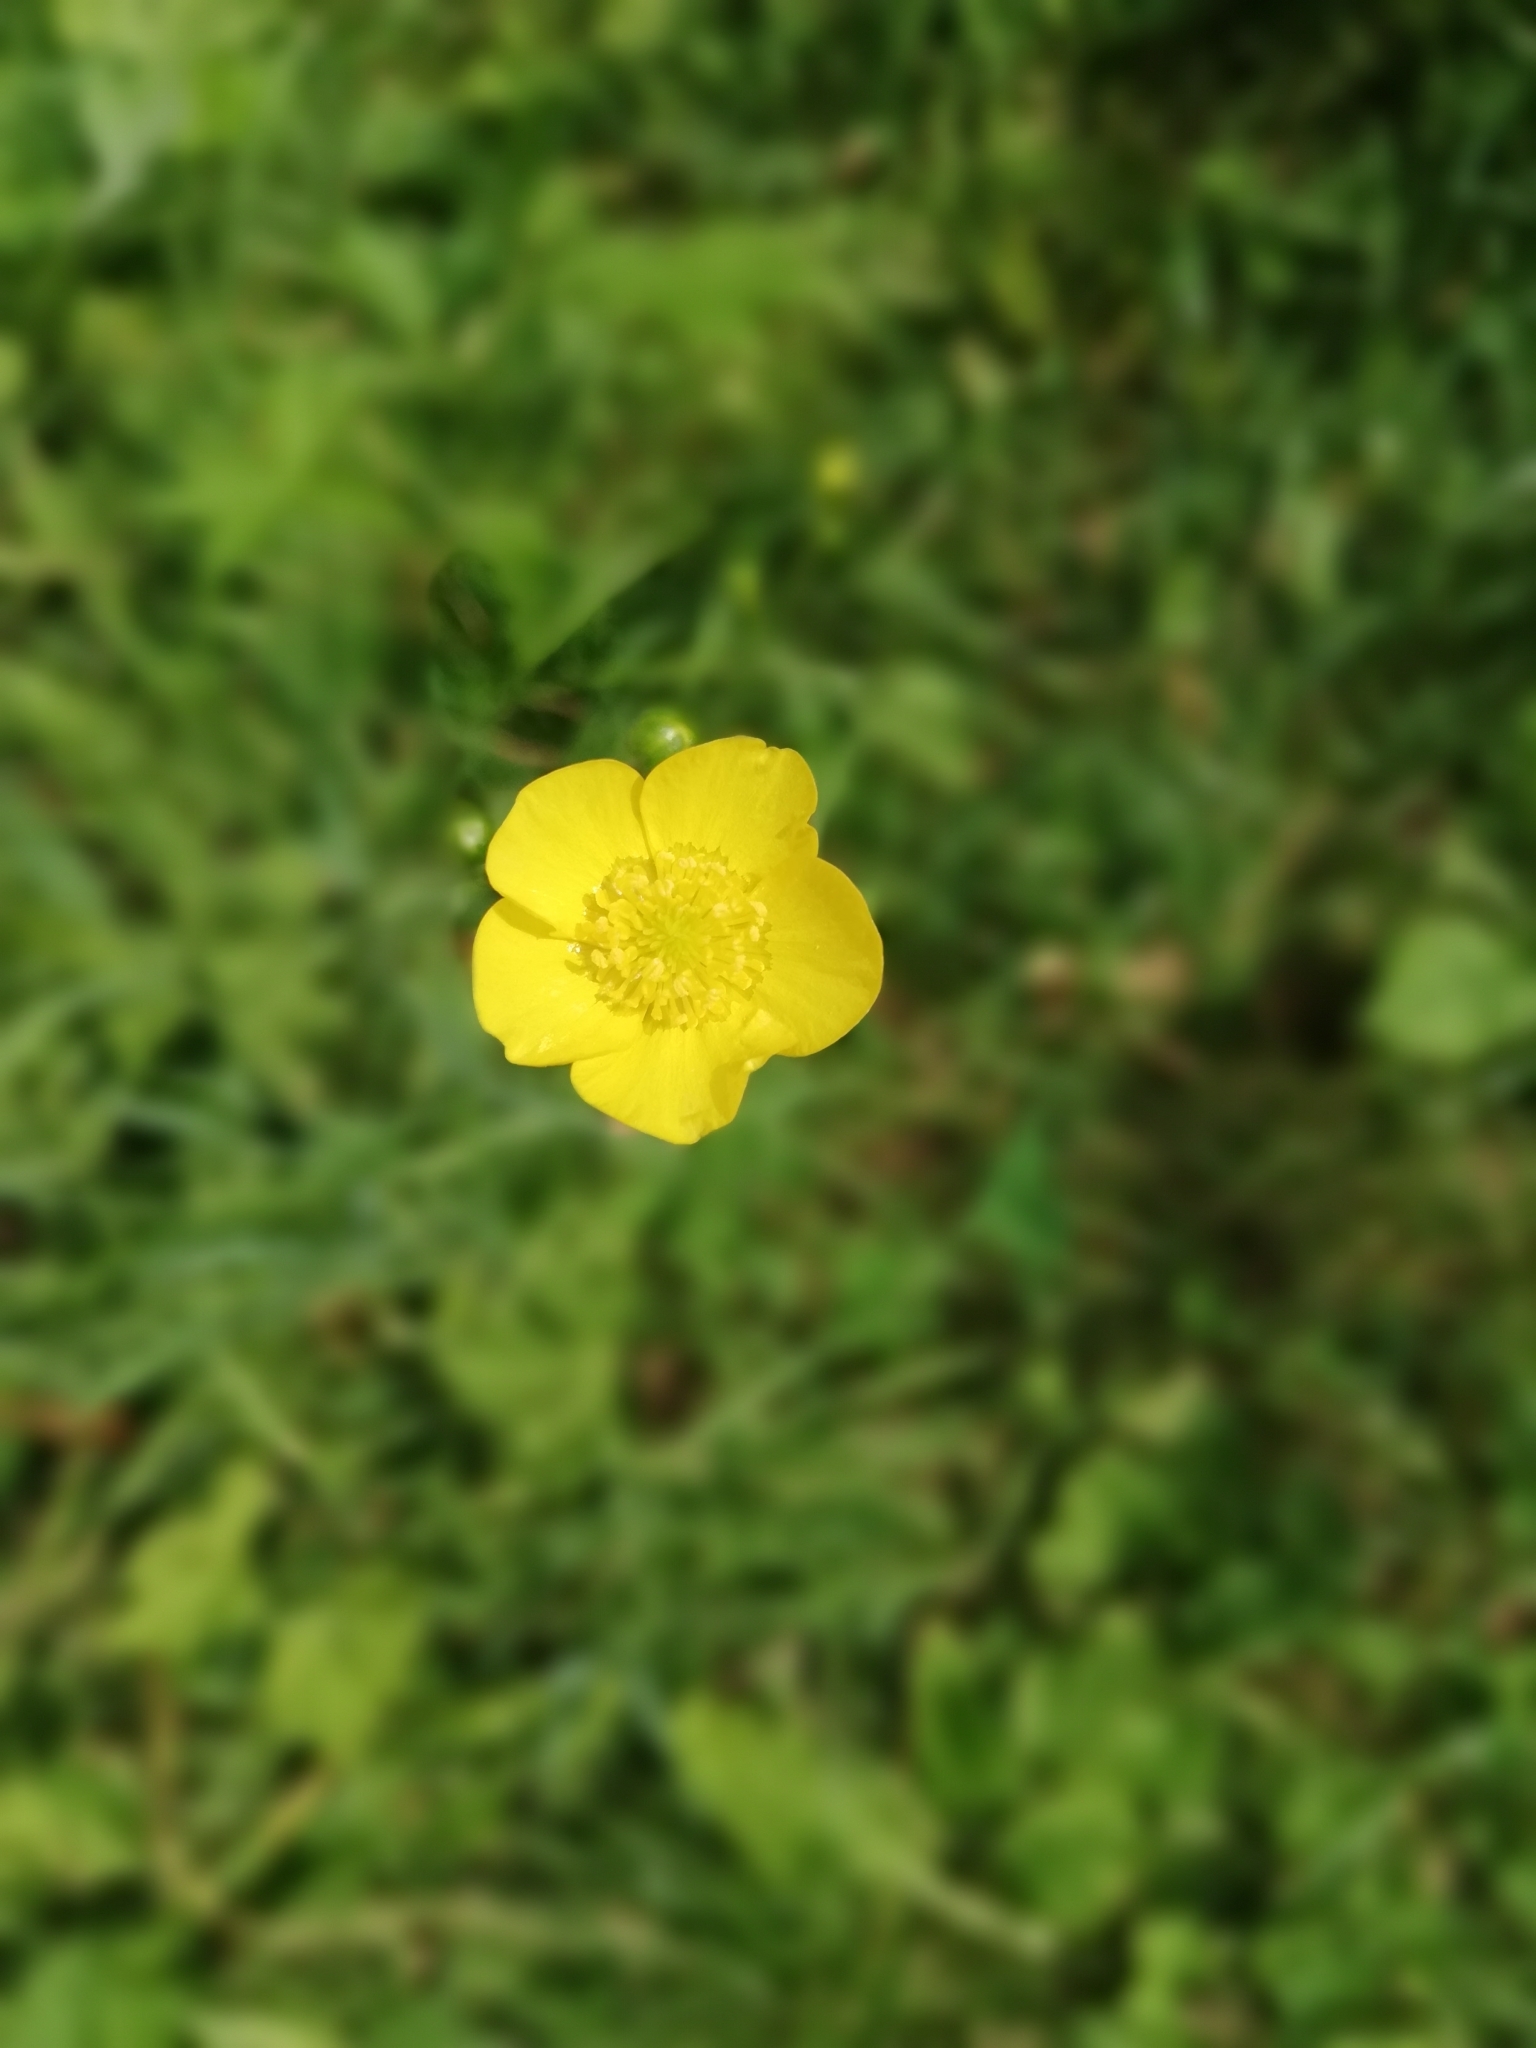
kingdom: Plantae
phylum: Tracheophyta
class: Magnoliopsida
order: Ranunculales
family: Ranunculaceae
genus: Ranunculus
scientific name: Ranunculus acris
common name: Meadow buttercup
